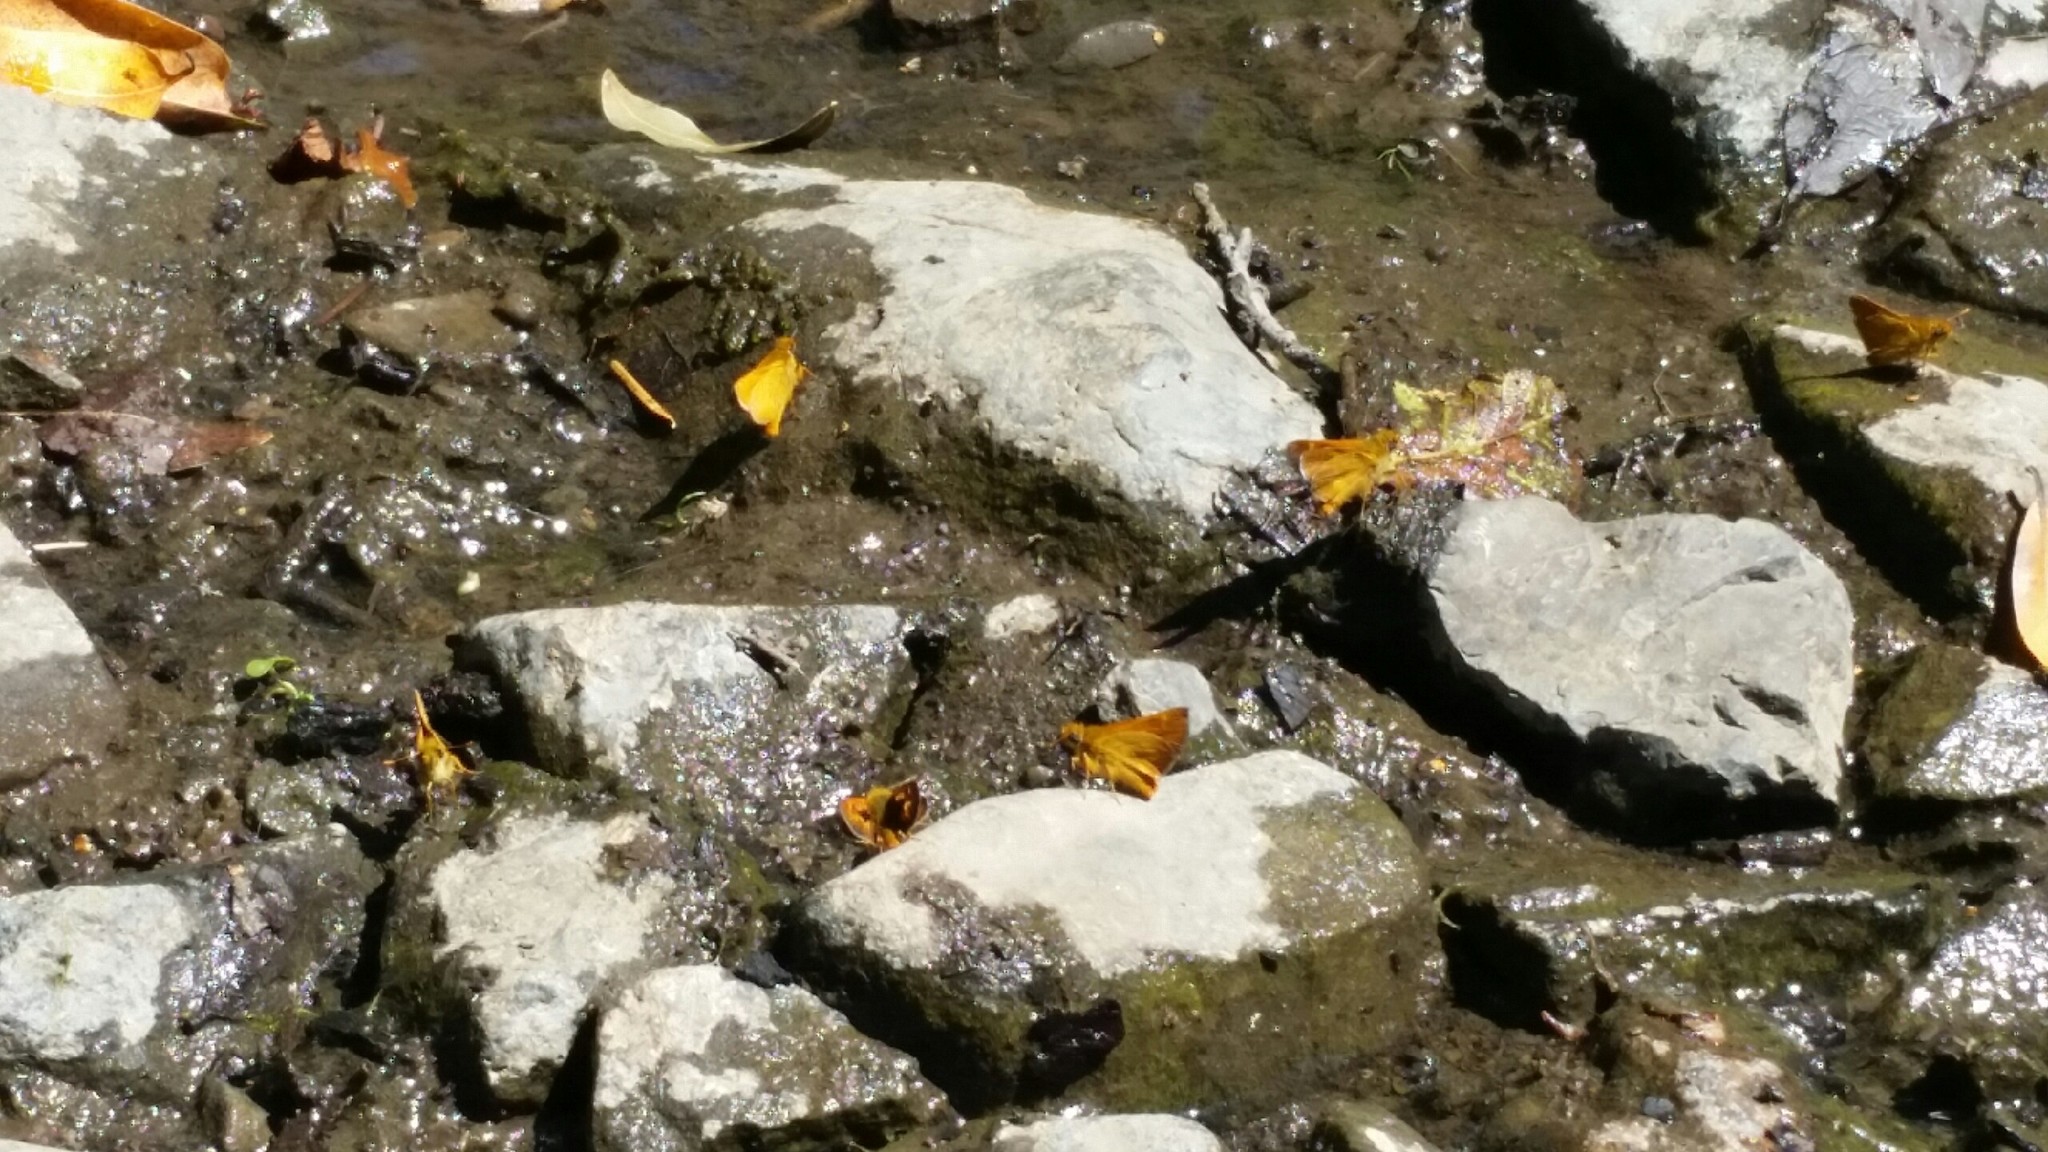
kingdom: Animalia
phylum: Arthropoda
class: Insecta
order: Lepidoptera
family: Hesperiidae
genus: Ochlodes
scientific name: Ochlodes agricola
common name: Rural skipper
